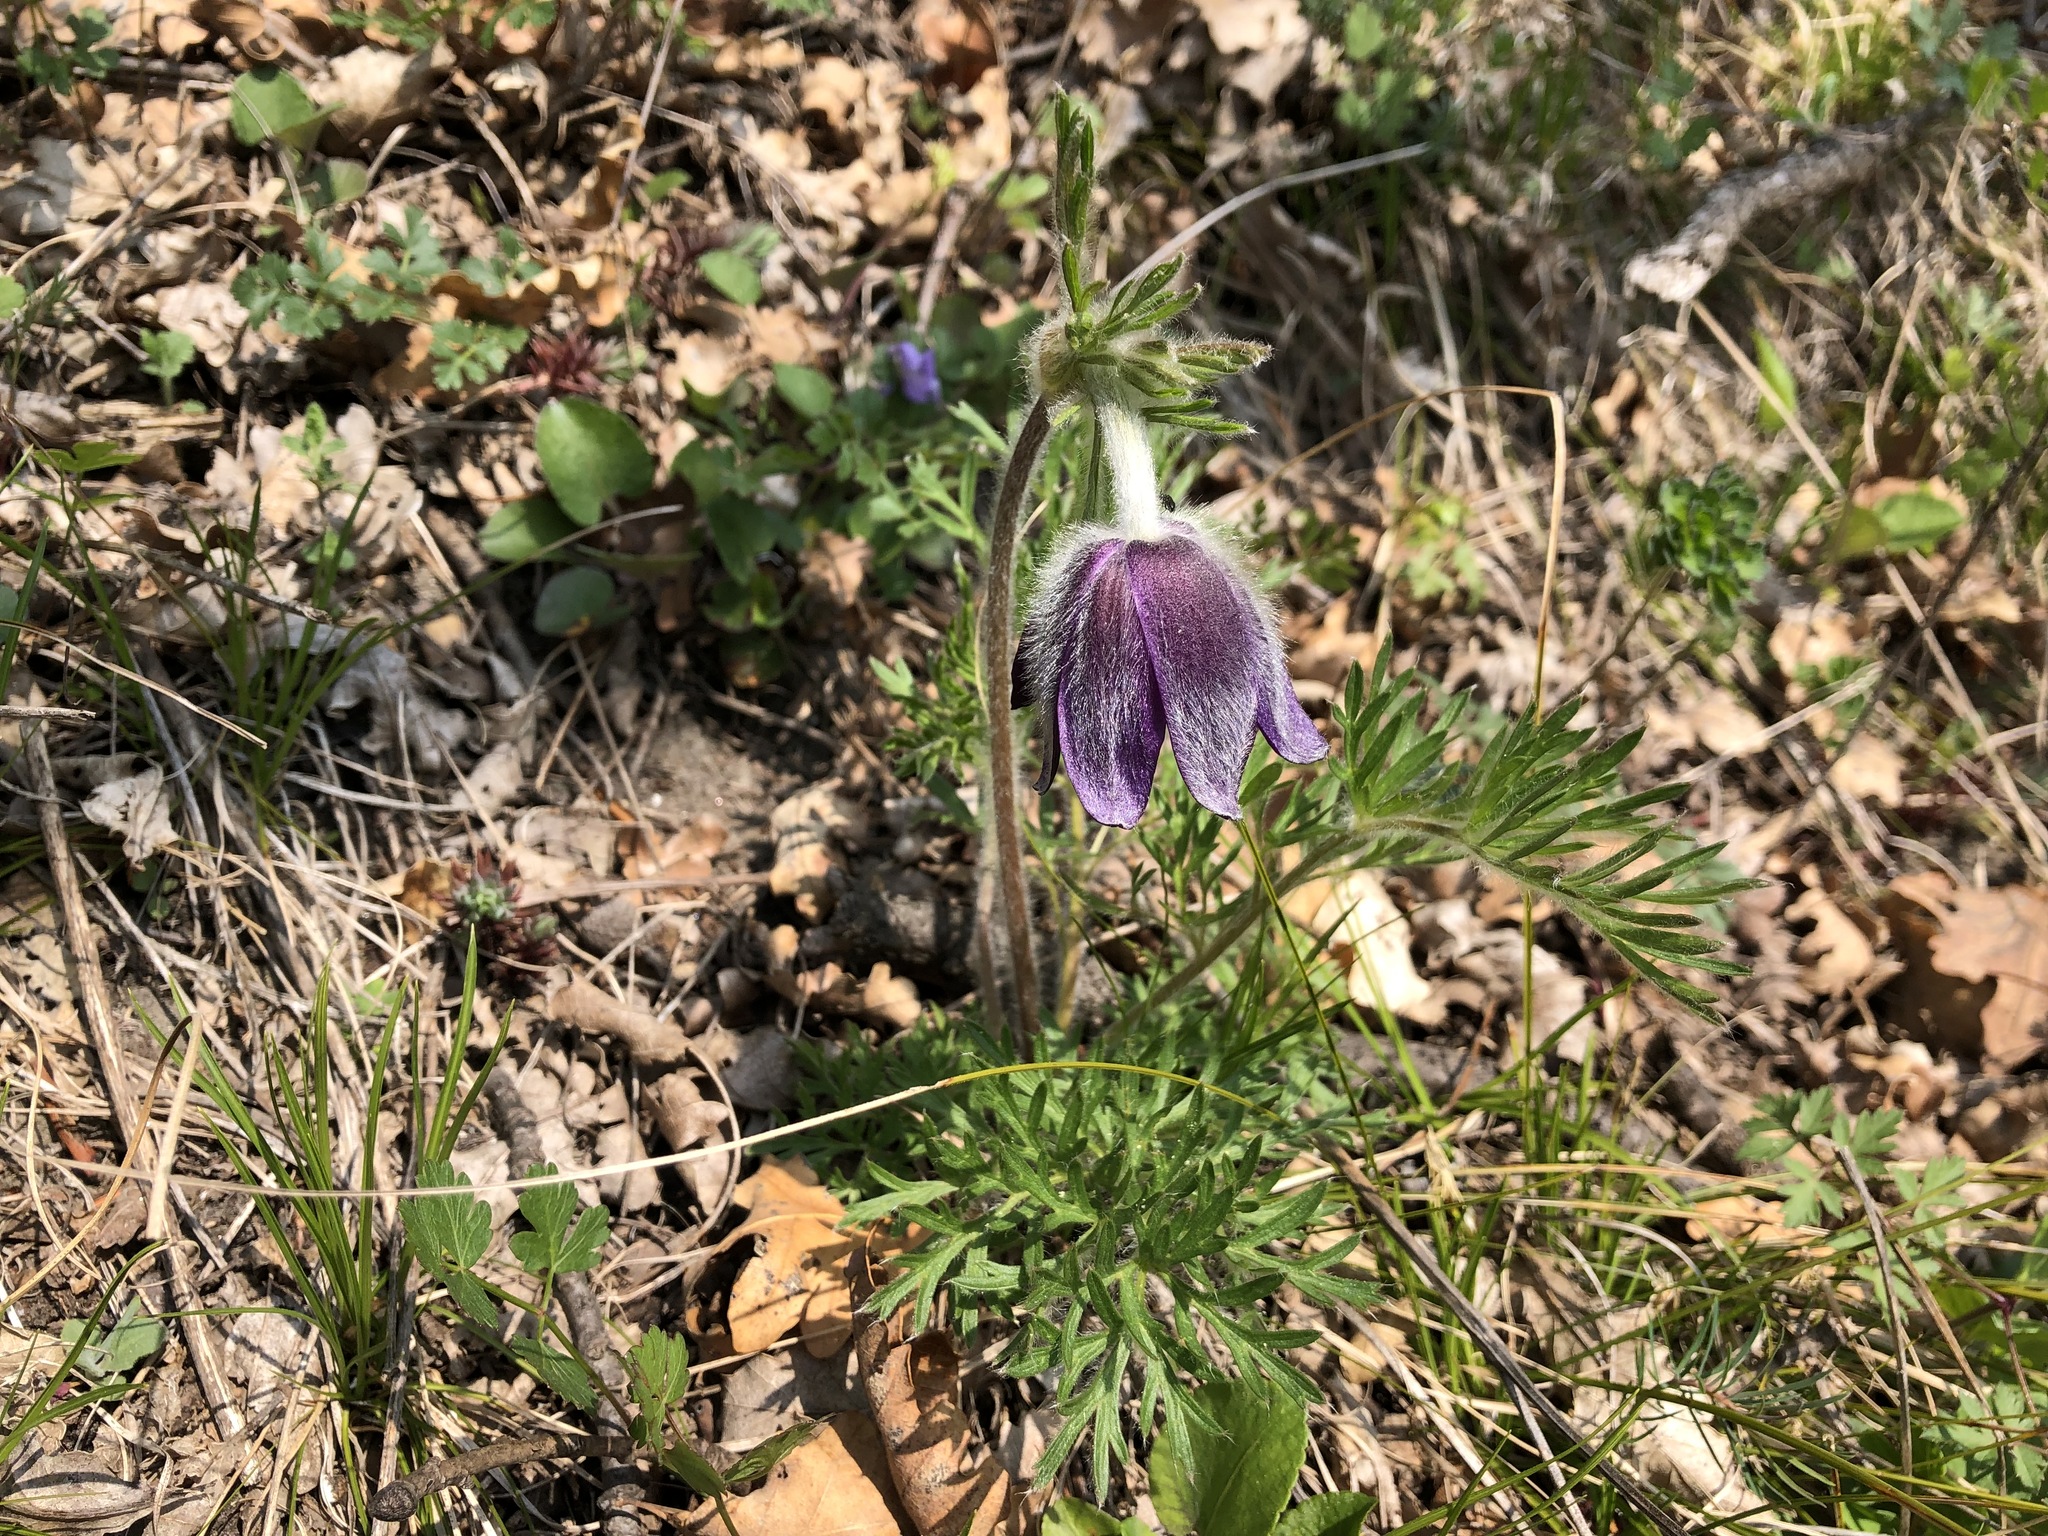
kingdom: Plantae
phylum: Tracheophyta
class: Magnoliopsida
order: Ranunculales
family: Ranunculaceae
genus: Pulsatilla
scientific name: Pulsatilla montana
